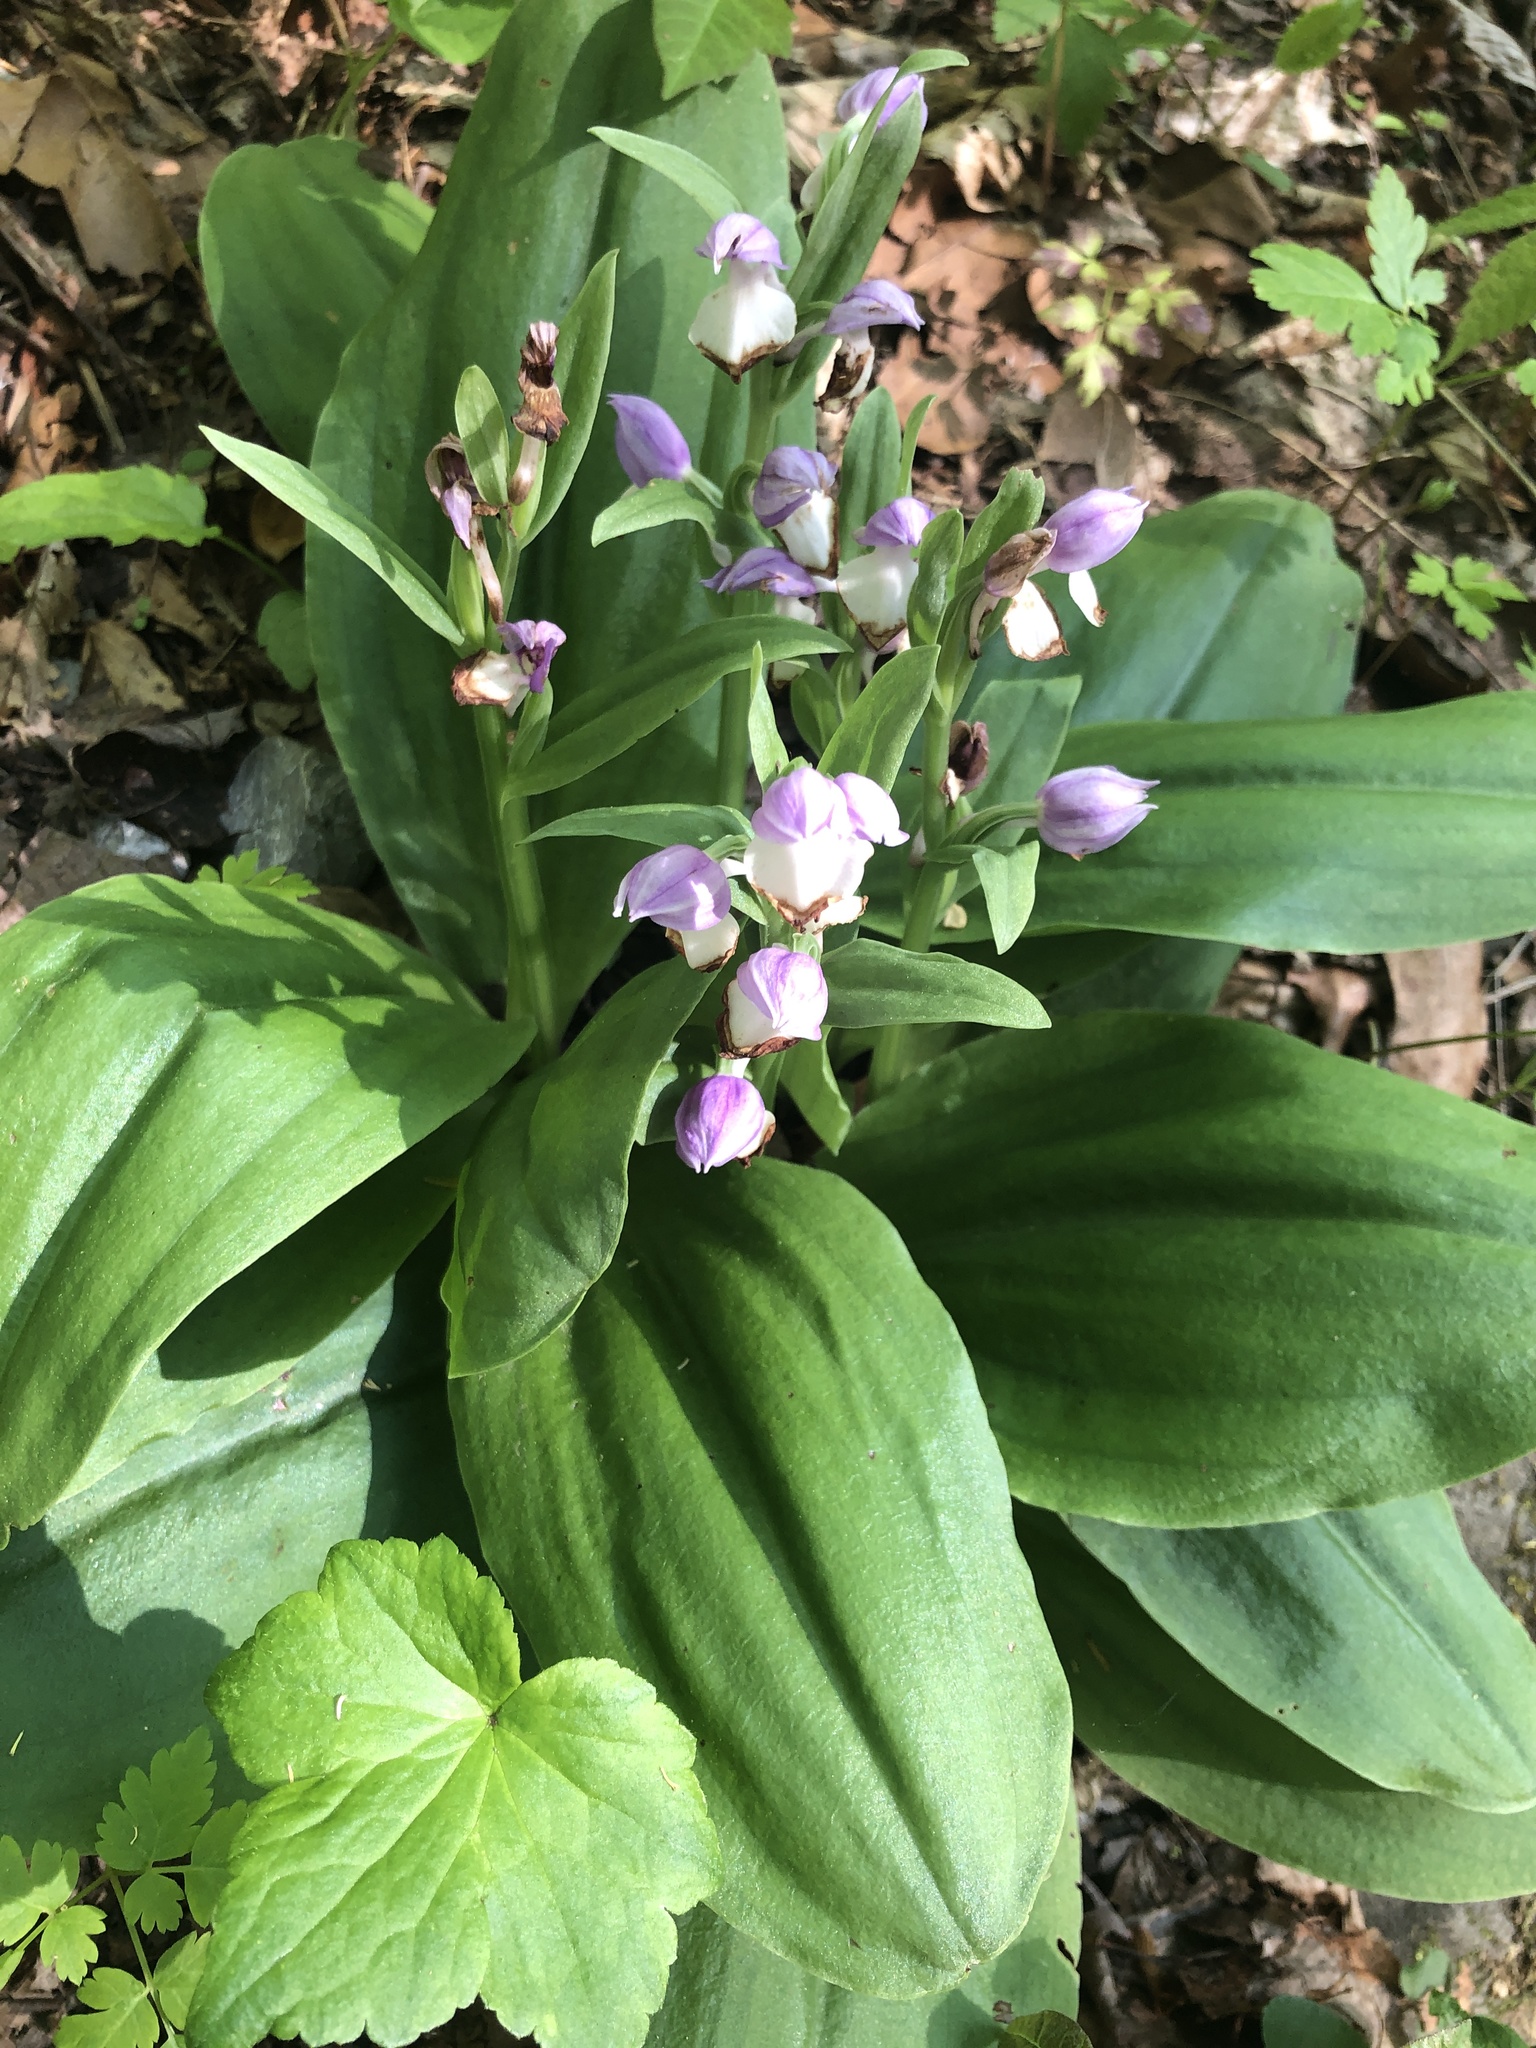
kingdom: Plantae
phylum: Tracheophyta
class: Liliopsida
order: Asparagales
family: Orchidaceae
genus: Galearis
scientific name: Galearis spectabilis
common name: Purple-hooded orchis
